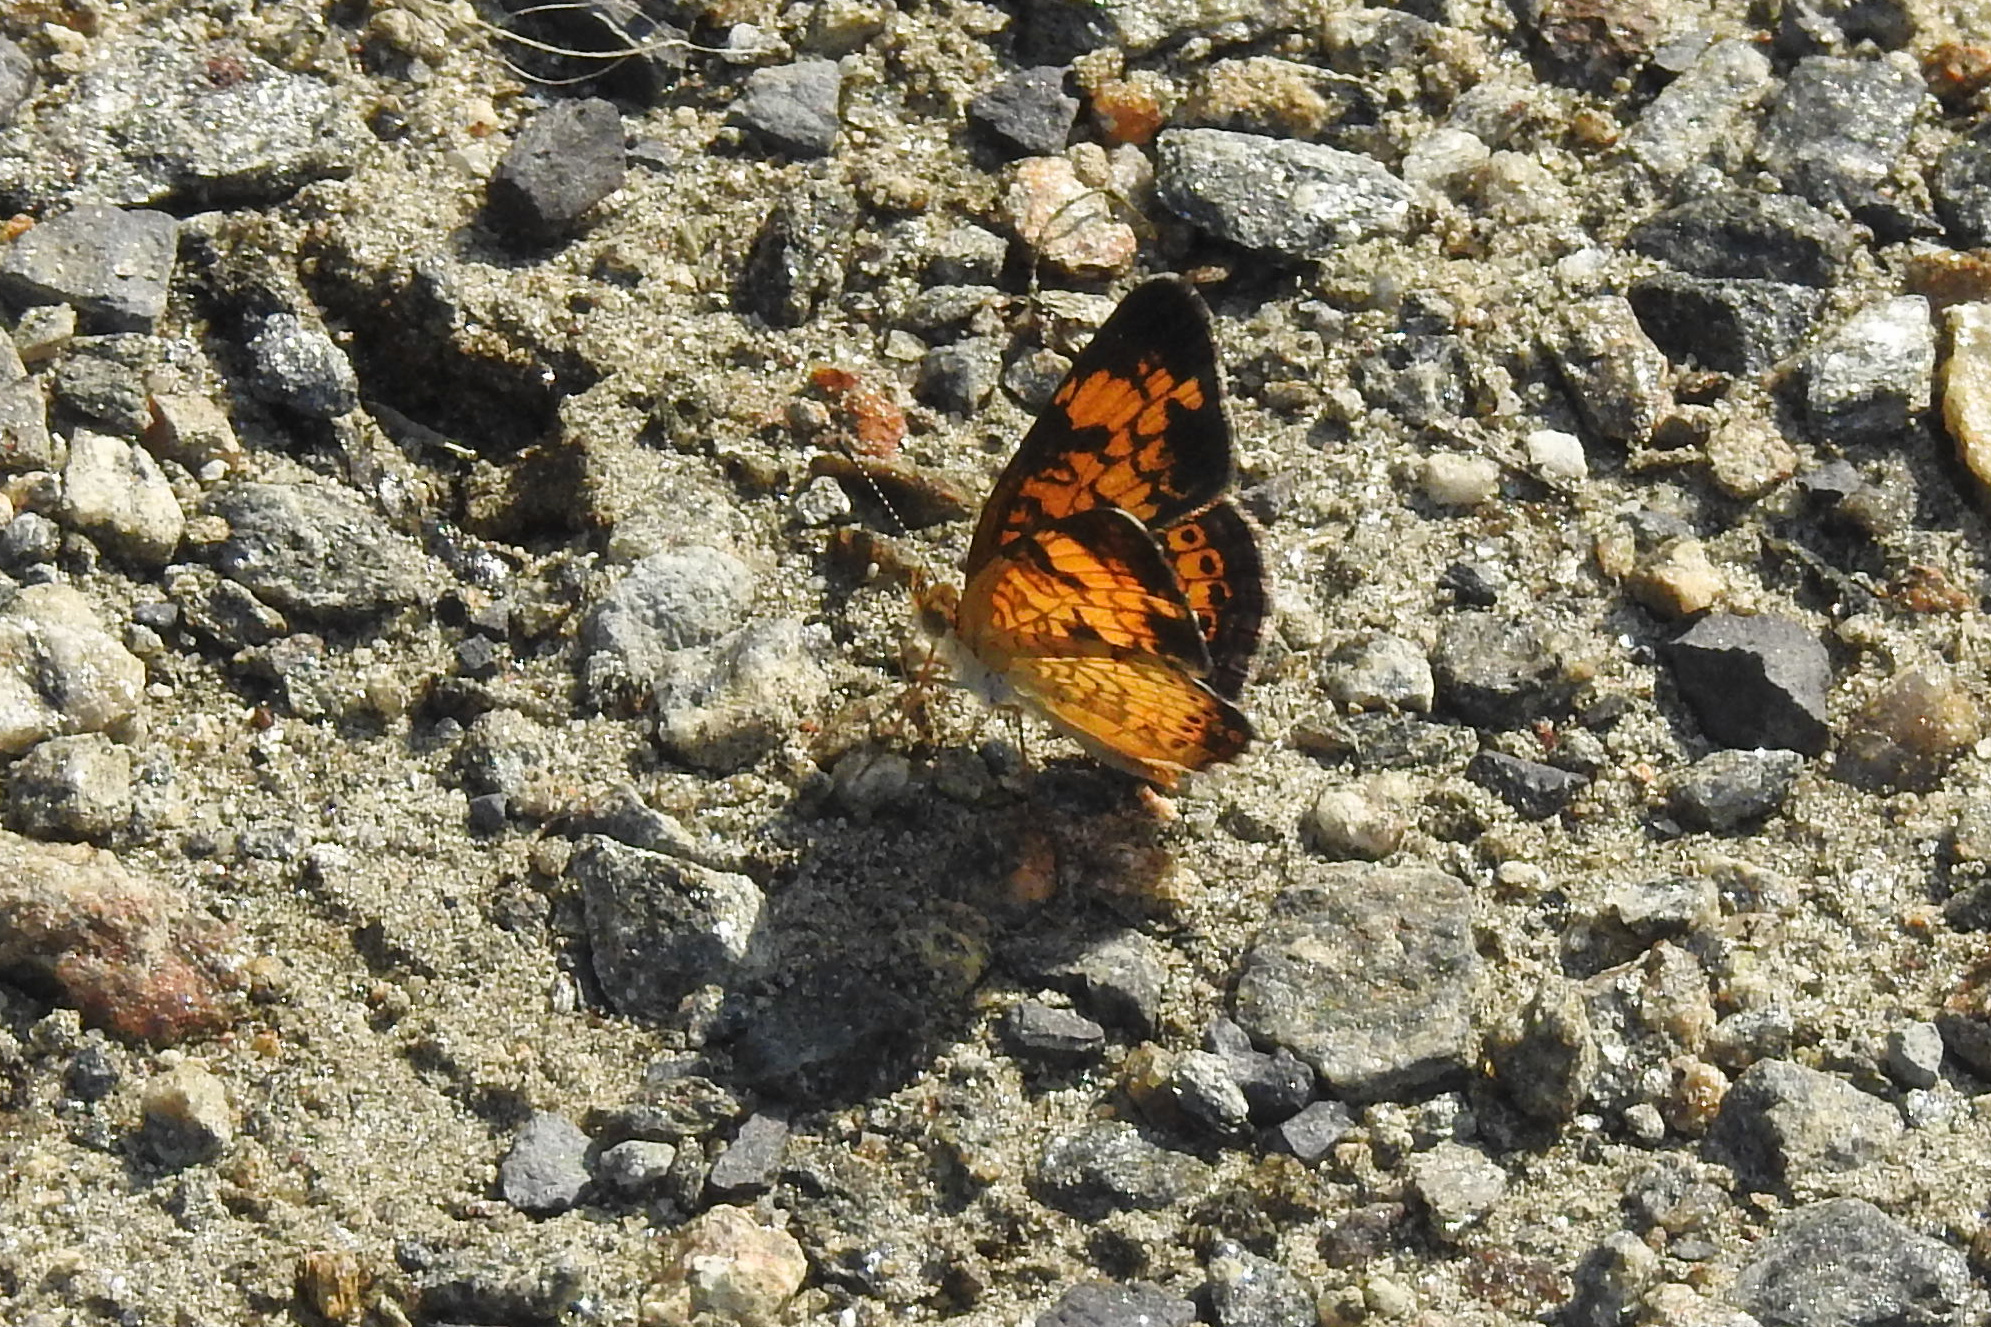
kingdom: Animalia
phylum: Arthropoda
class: Insecta
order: Lepidoptera
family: Nymphalidae
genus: Phyciodes
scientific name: Phyciodes tharos
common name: Pearl crescent
